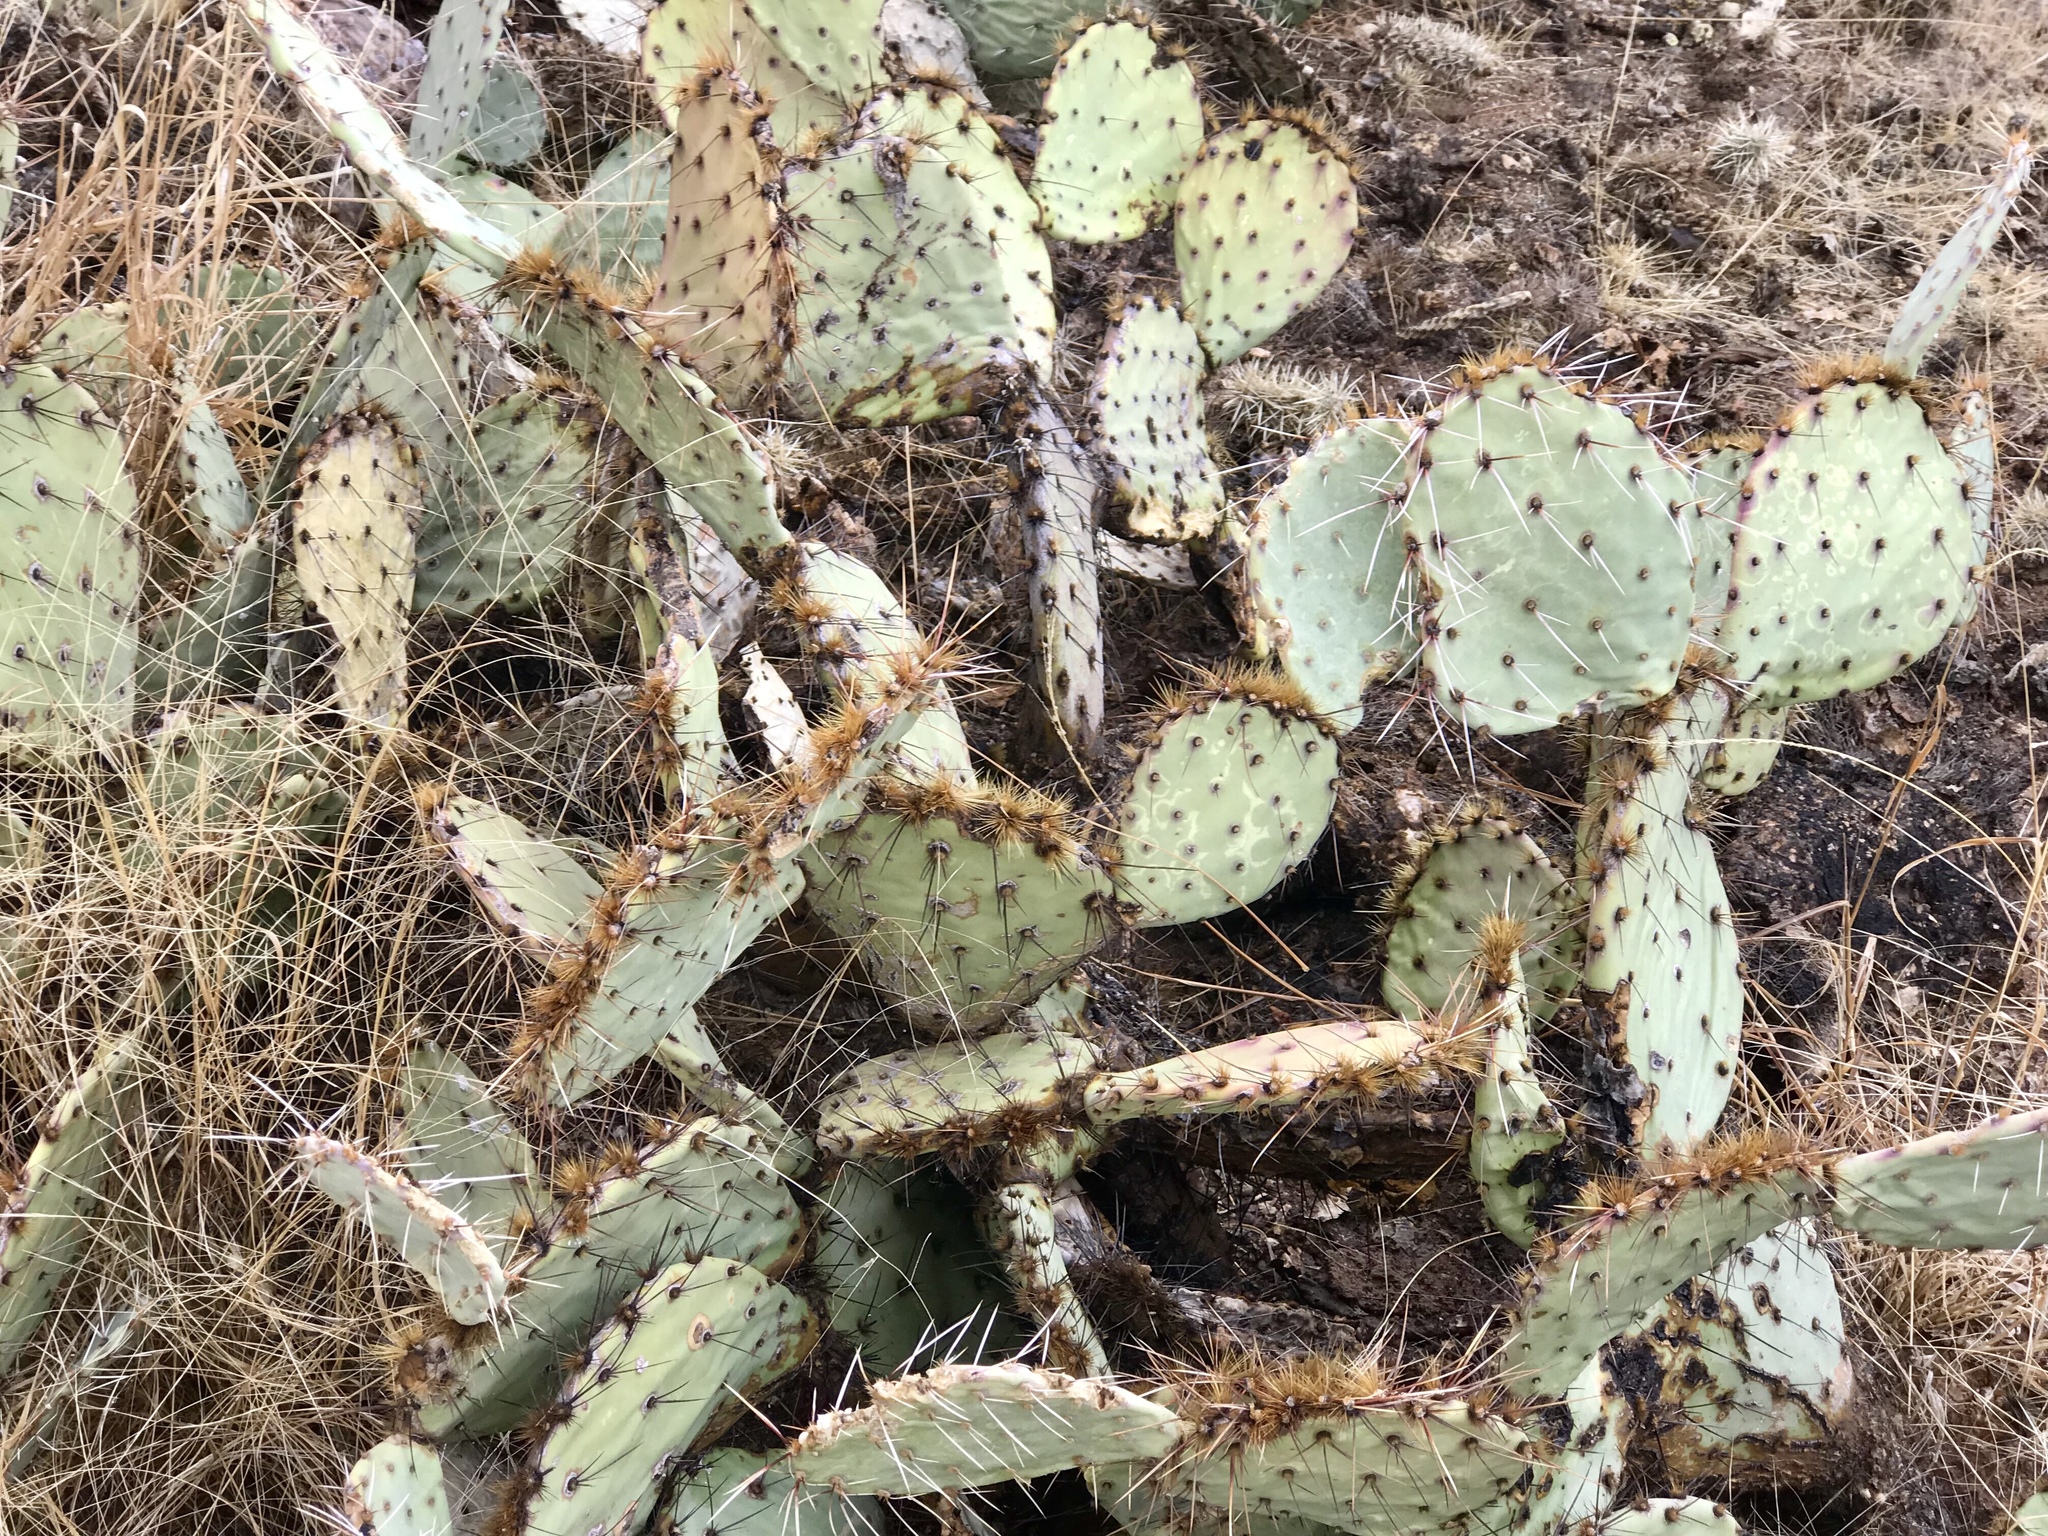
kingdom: Plantae
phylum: Tracheophyta
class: Magnoliopsida
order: Caryophyllales
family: Cactaceae
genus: Opuntia
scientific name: Opuntia phaeacantha
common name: New mexico prickly-pear
